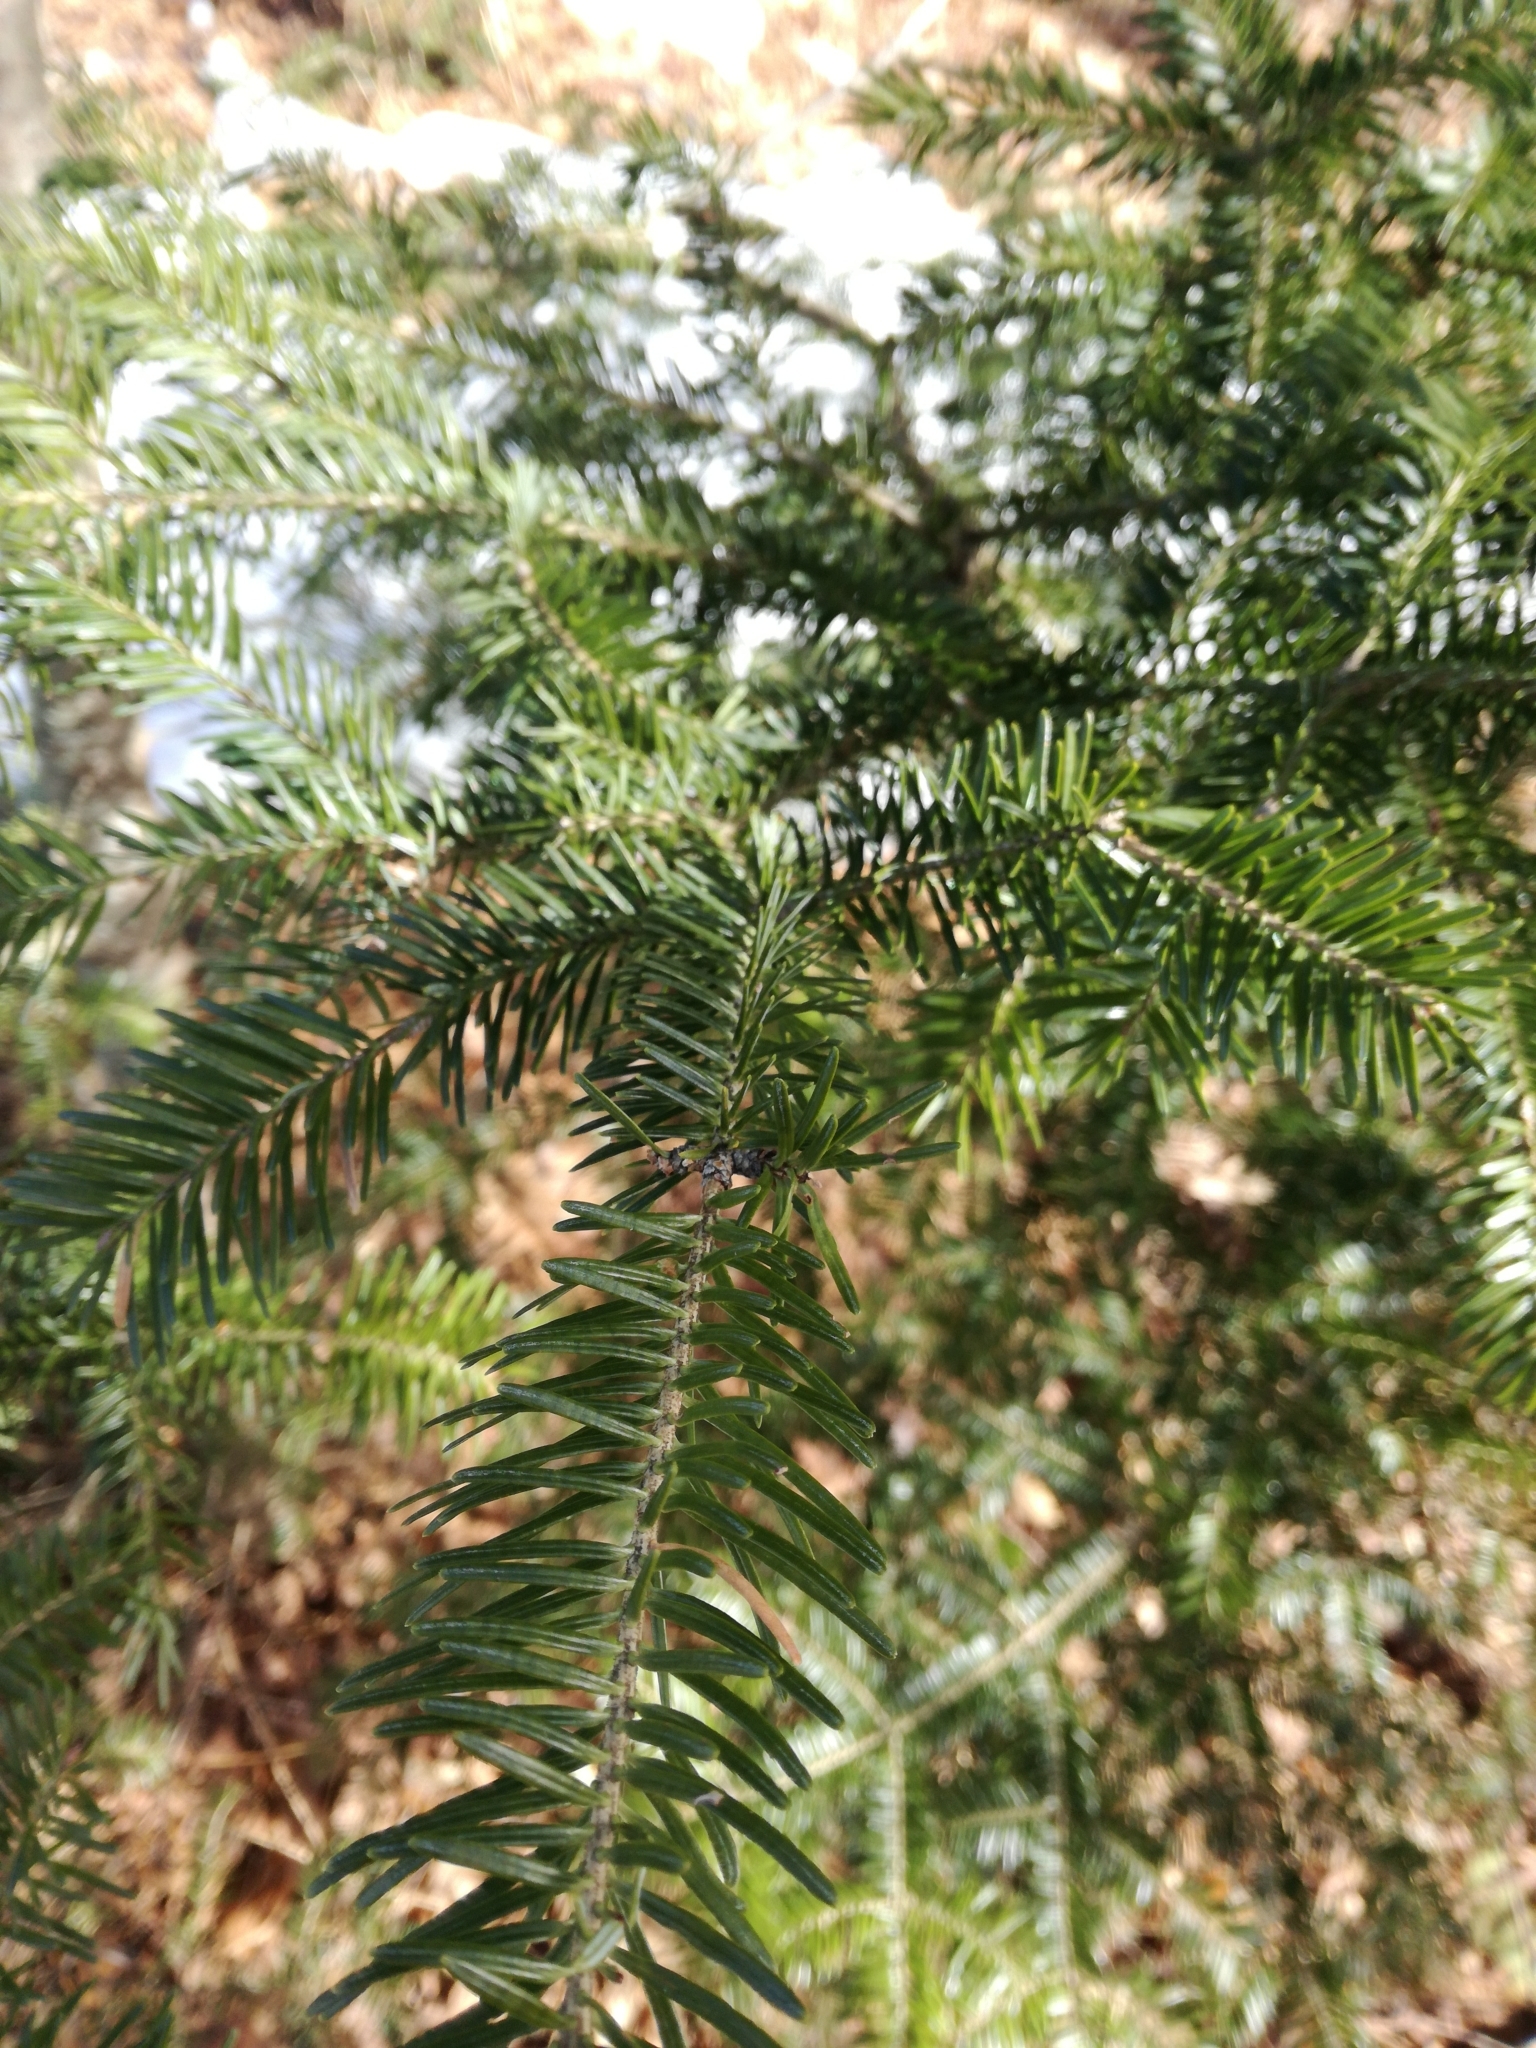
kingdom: Plantae
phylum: Tracheophyta
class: Pinopsida
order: Pinales
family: Pinaceae
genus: Abies
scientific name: Abies balsamea
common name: Balsam fir
